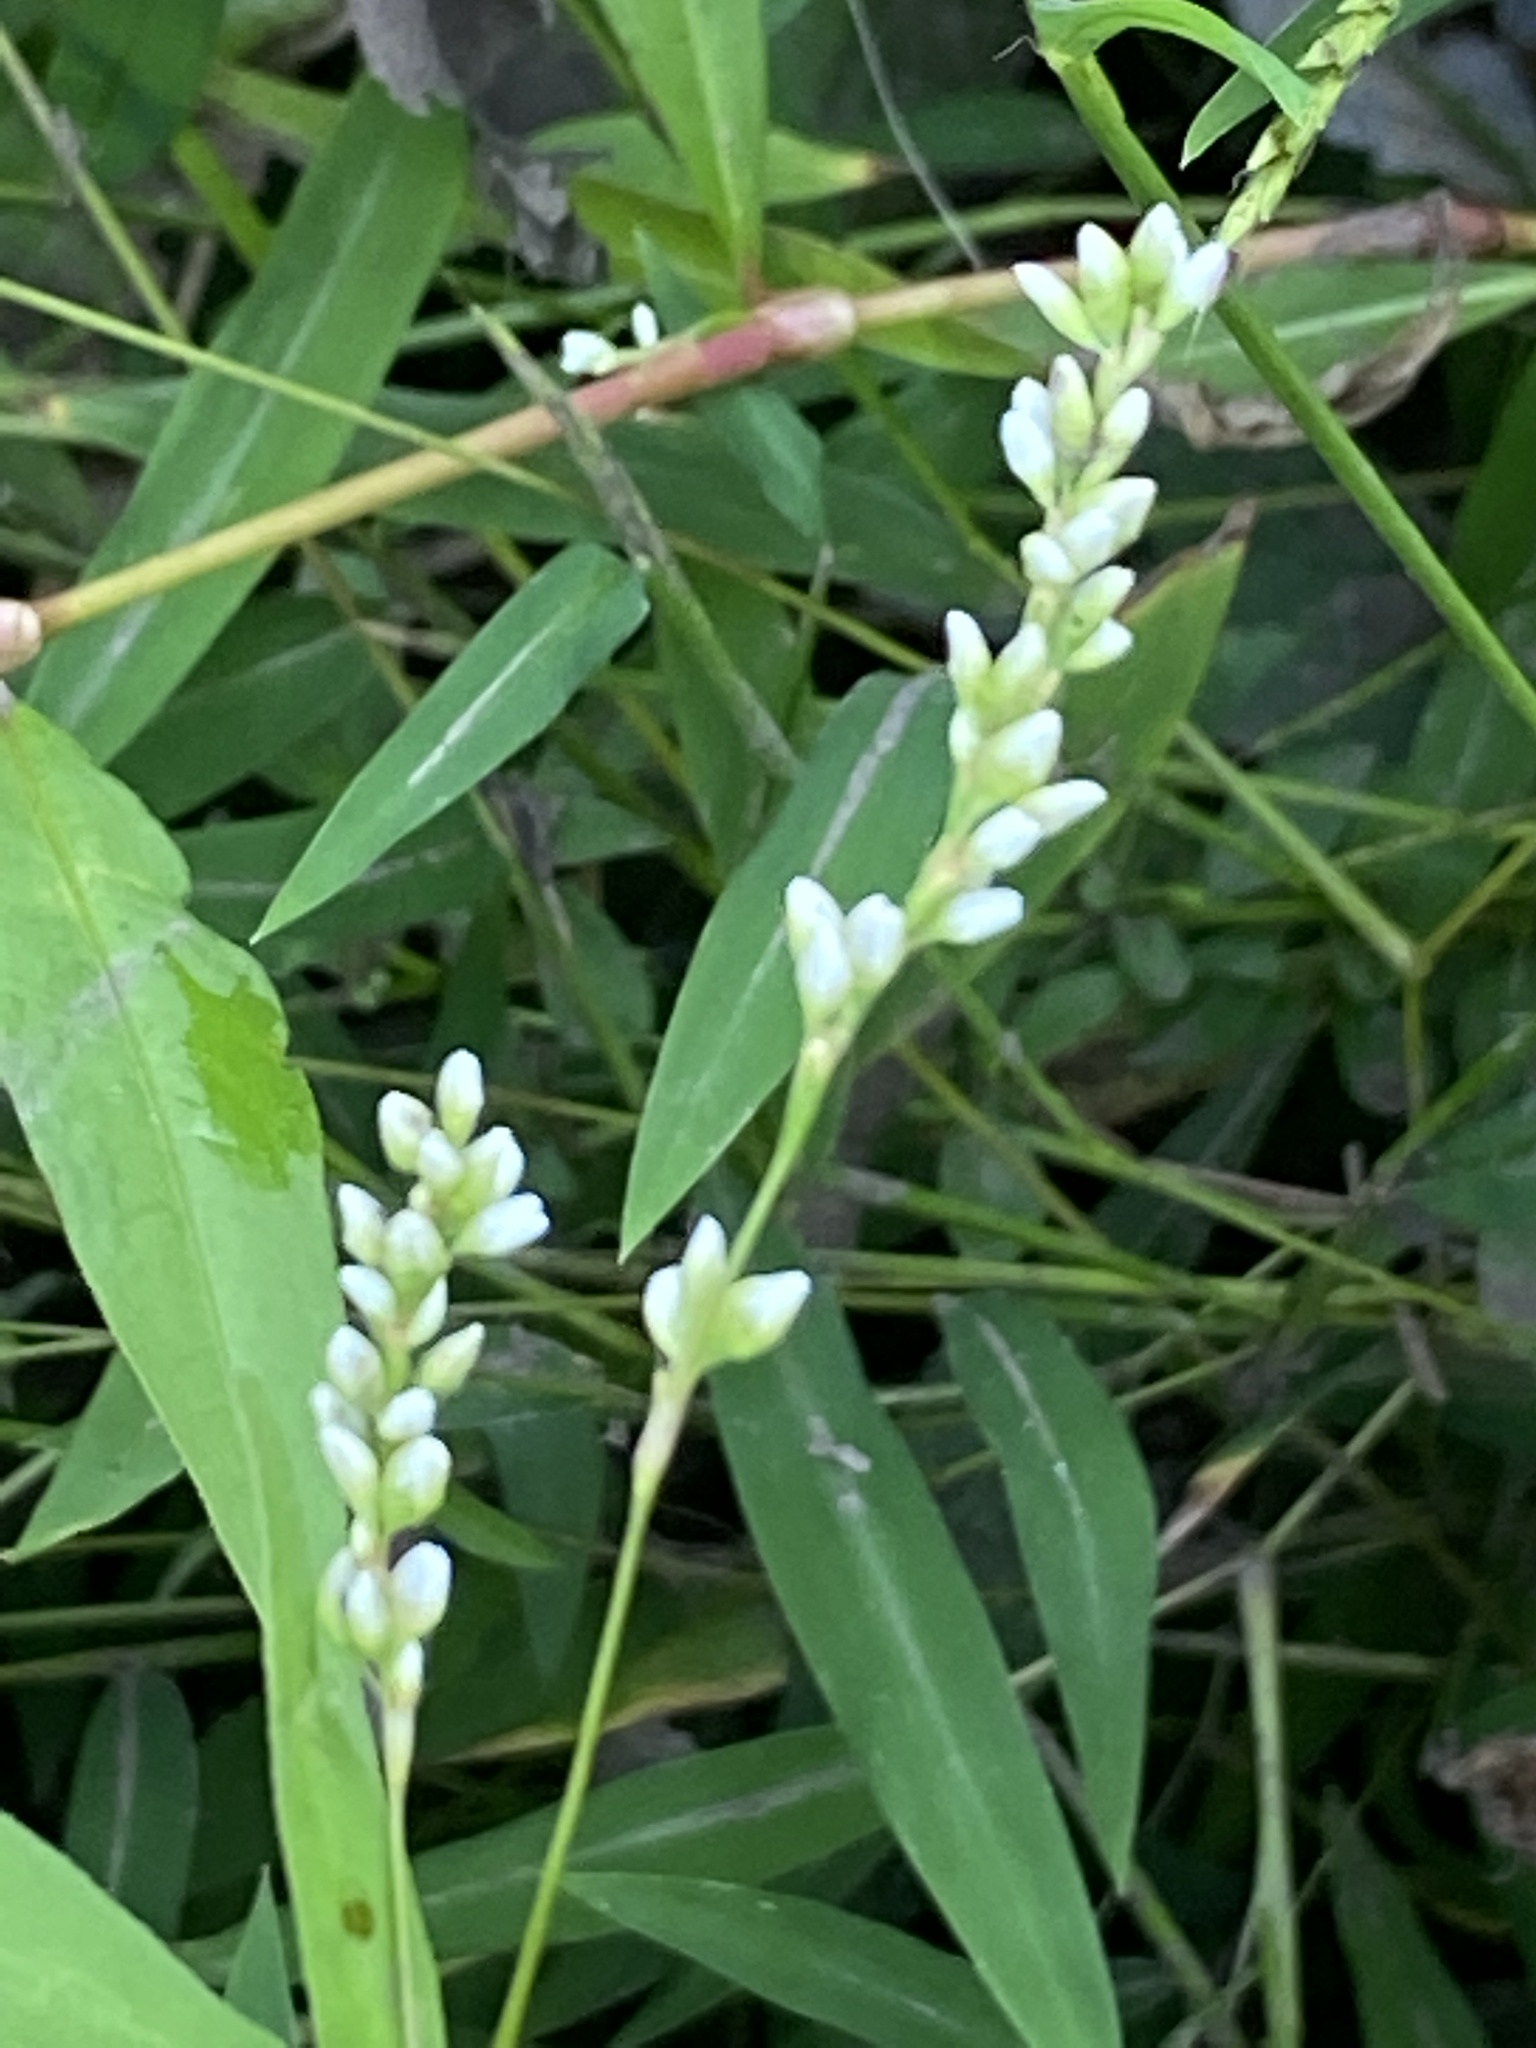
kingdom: Plantae
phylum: Tracheophyta
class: Magnoliopsida
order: Caryophyllales
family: Polygonaceae
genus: Persicaria
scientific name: Persicaria punctata
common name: Dotted smartweed
